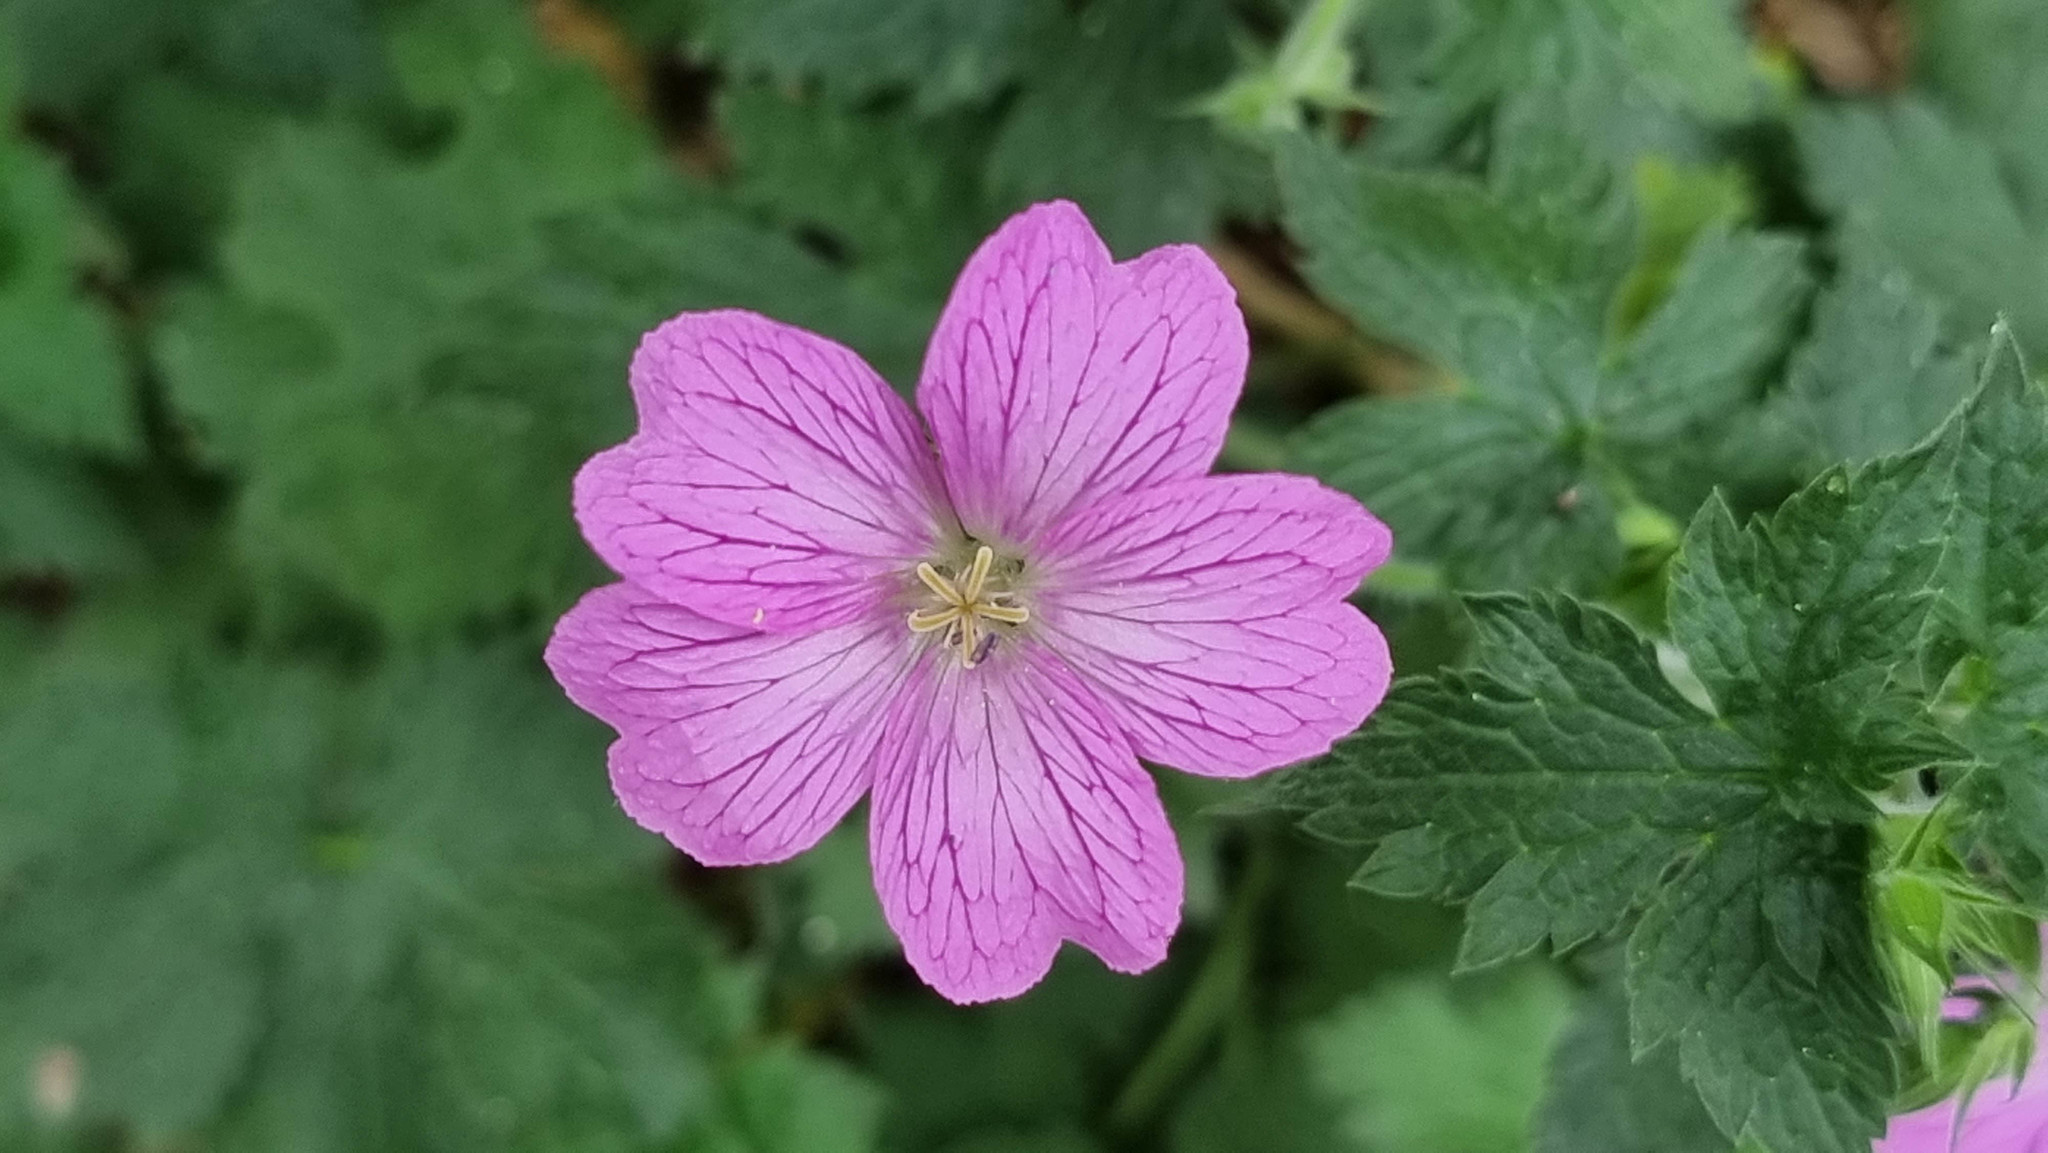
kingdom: Plantae
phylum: Tracheophyta
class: Magnoliopsida
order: Geraniales
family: Geraniaceae
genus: Geranium
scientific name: Geranium oxonianum
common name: Druce's crane's-bill
